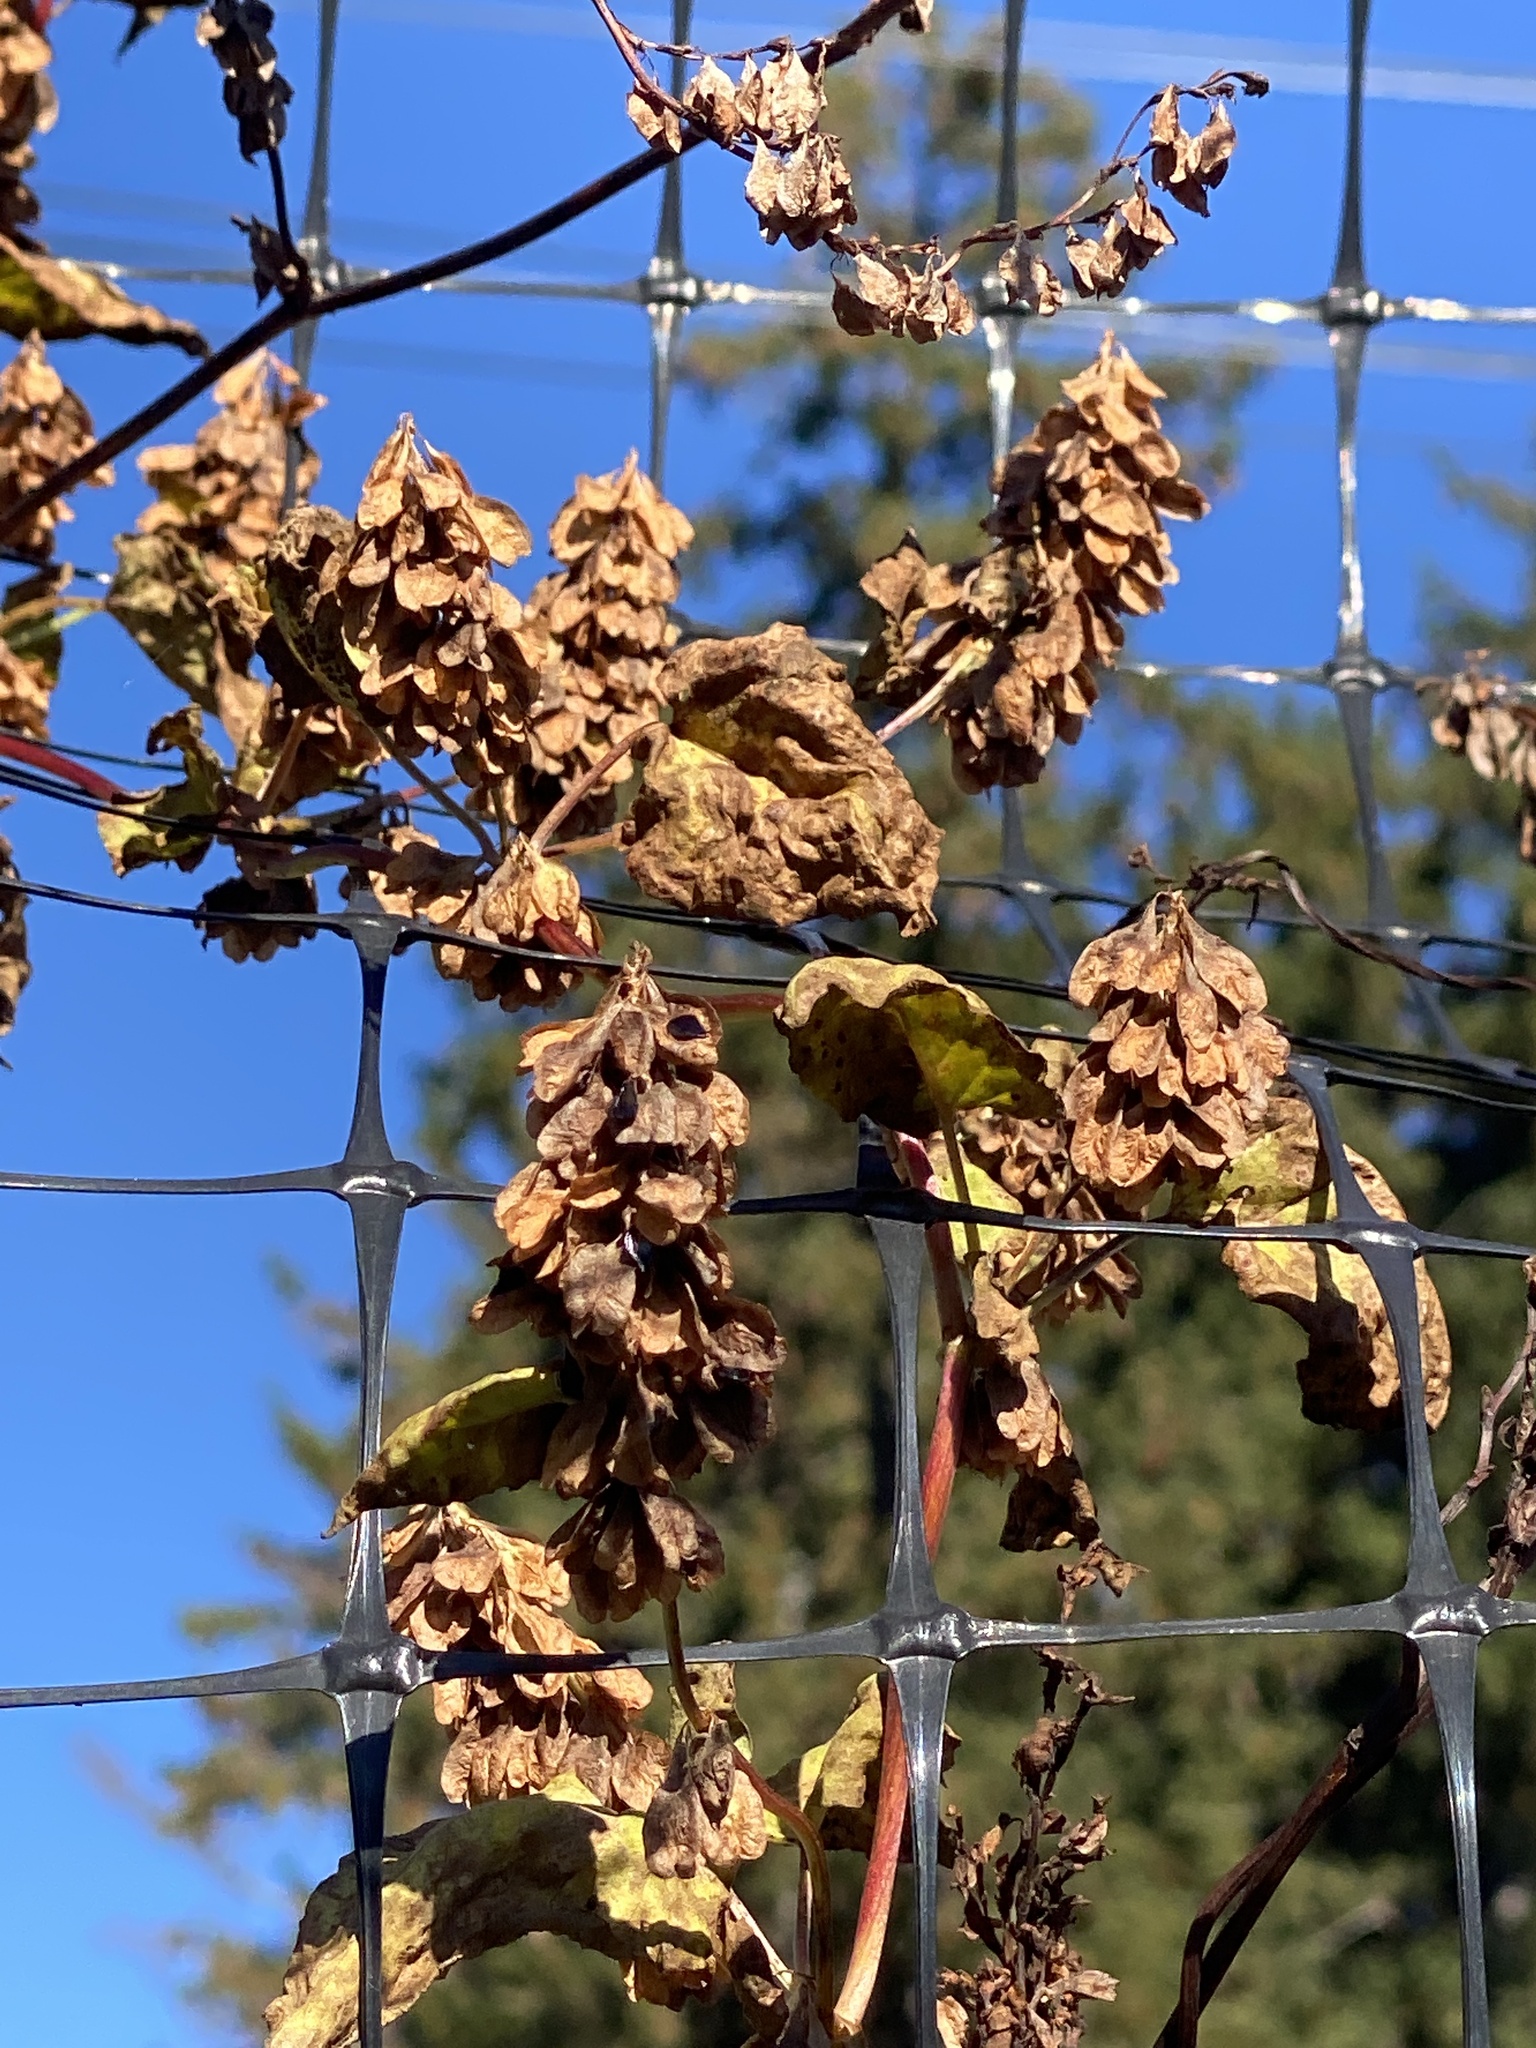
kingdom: Plantae
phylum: Tracheophyta
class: Magnoliopsida
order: Caryophyllales
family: Polygonaceae
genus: Fallopia
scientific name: Fallopia scandens
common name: Climbing false buckwheat
